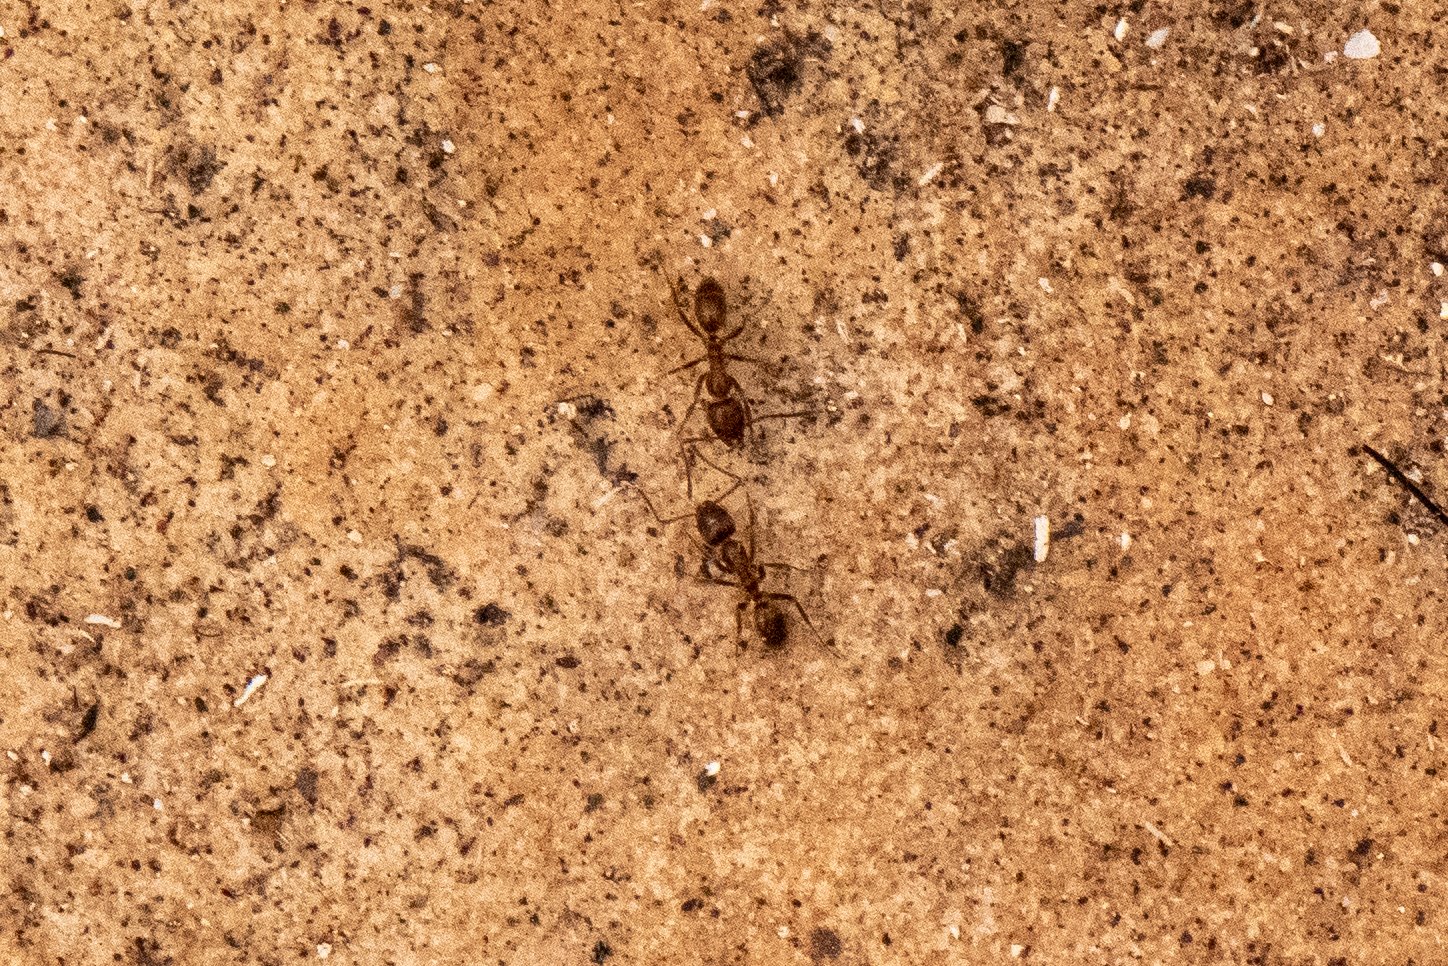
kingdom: Animalia
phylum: Arthropoda
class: Insecta
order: Hymenoptera
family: Formicidae
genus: Linepithema
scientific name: Linepithema humile
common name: Argentine ant
